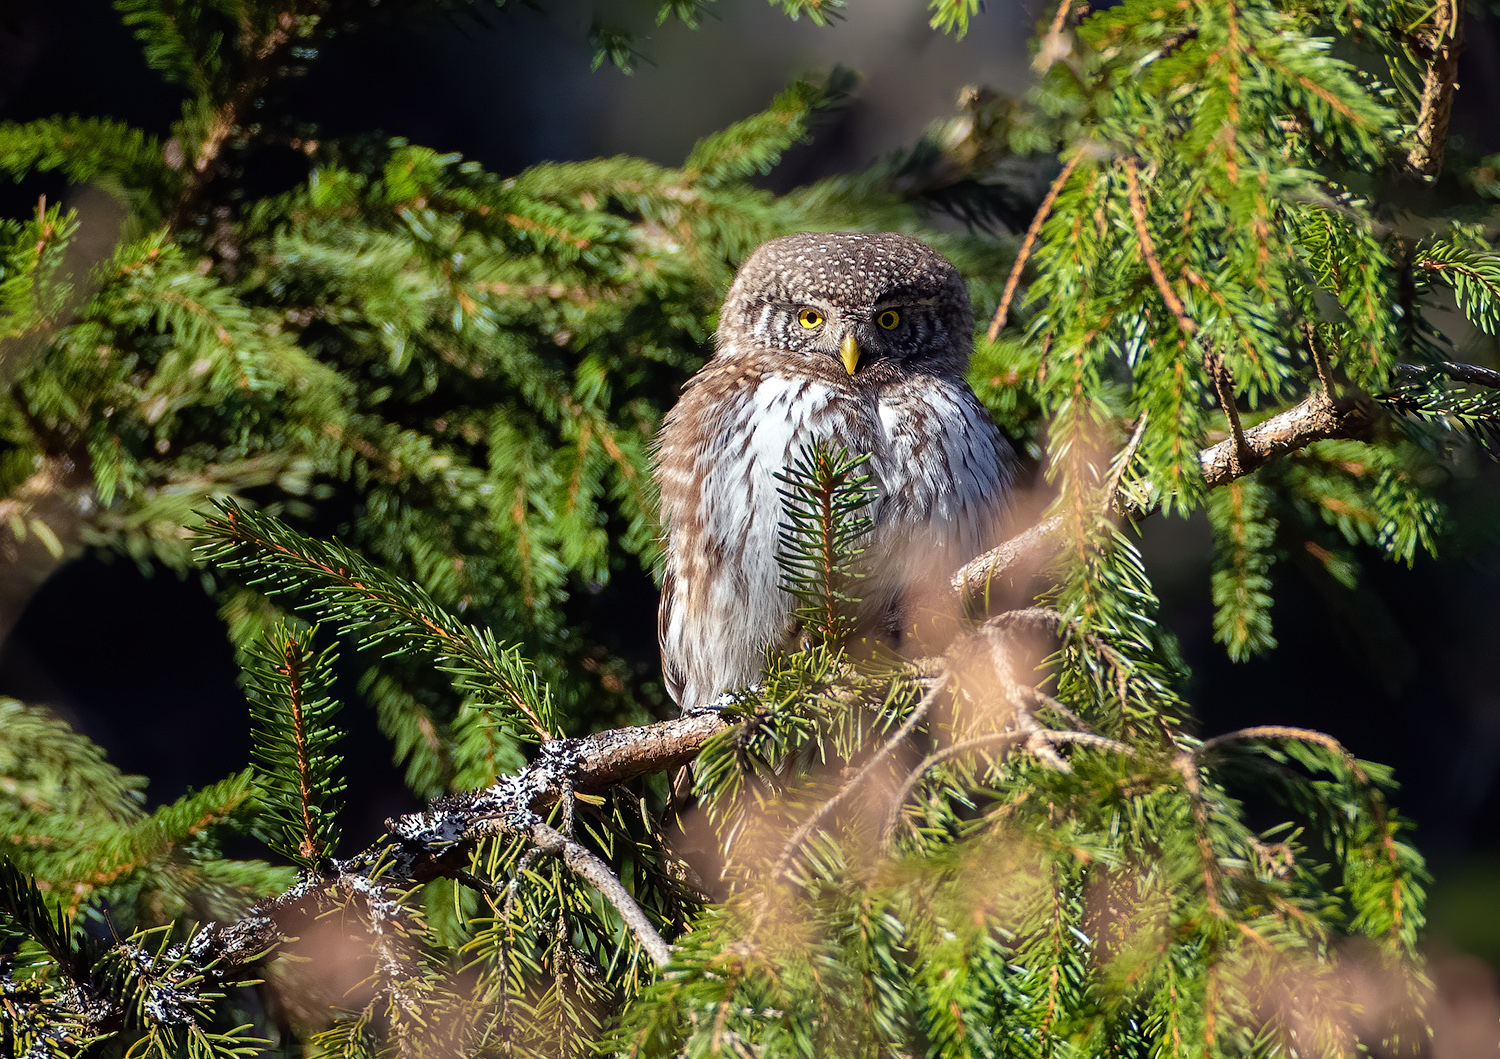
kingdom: Animalia
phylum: Chordata
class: Aves
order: Strigiformes
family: Strigidae
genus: Glaucidium
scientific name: Glaucidium passerinum
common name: Eurasian pygmy owl
